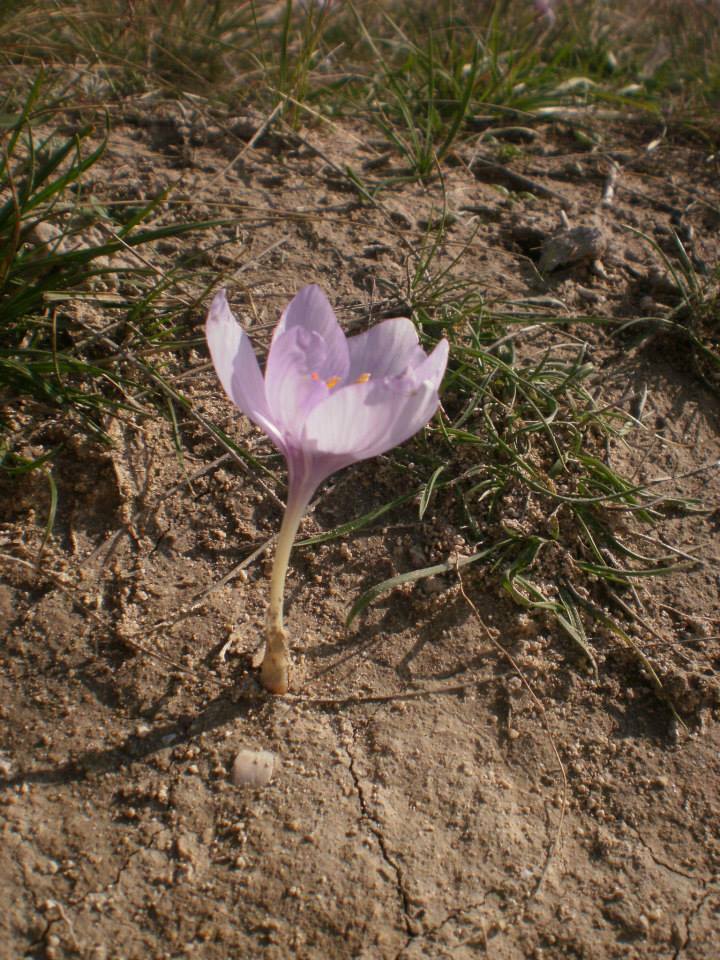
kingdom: Plantae
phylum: Tracheophyta
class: Liliopsida
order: Asparagales
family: Iridaceae
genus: Crocus
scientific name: Crocus pallasii
